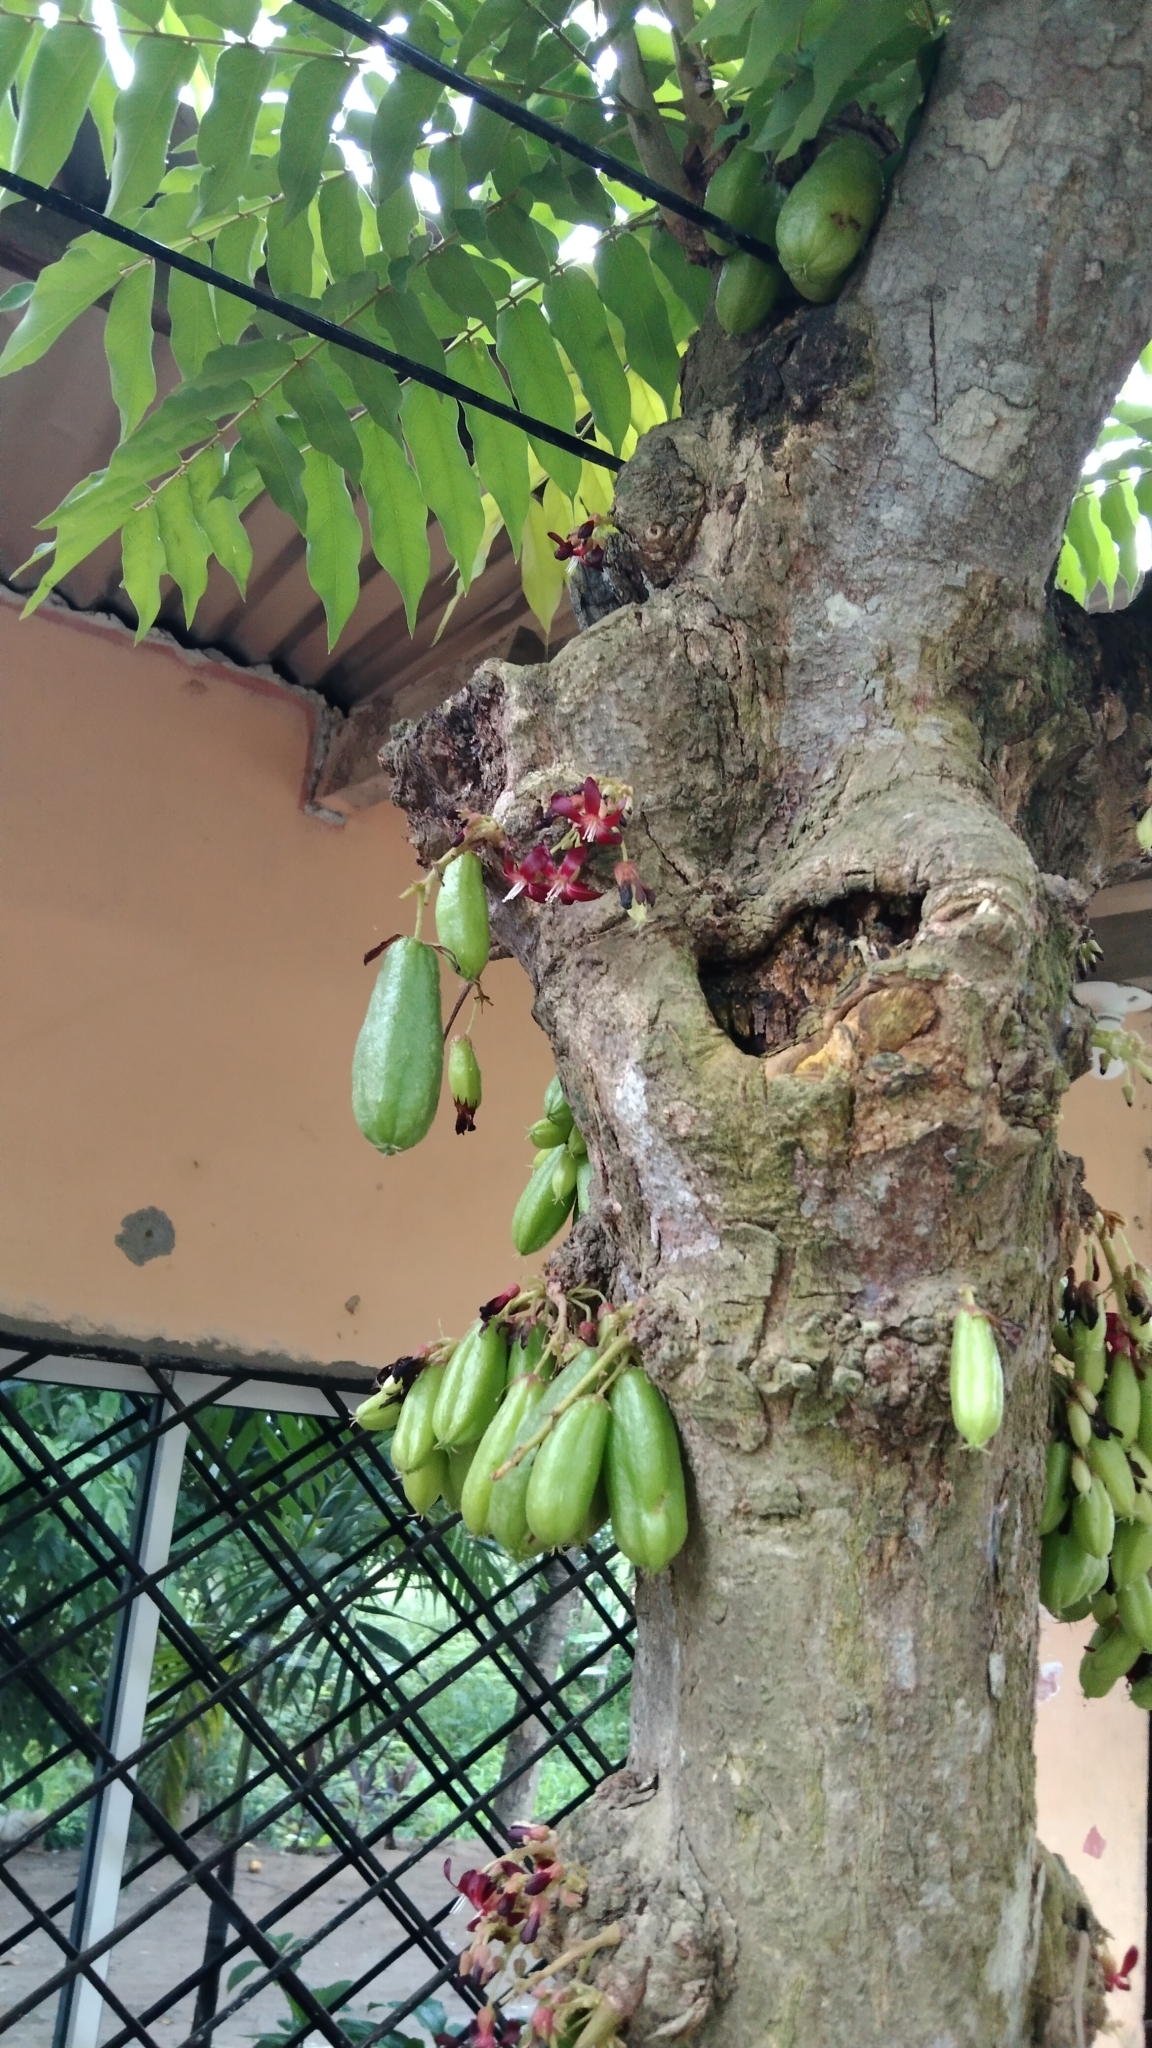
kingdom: Plantae
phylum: Tracheophyta
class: Magnoliopsida
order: Oxalidales
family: Oxalidaceae
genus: Averrhoa
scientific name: Averrhoa bilimbi
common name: Bilimbi
